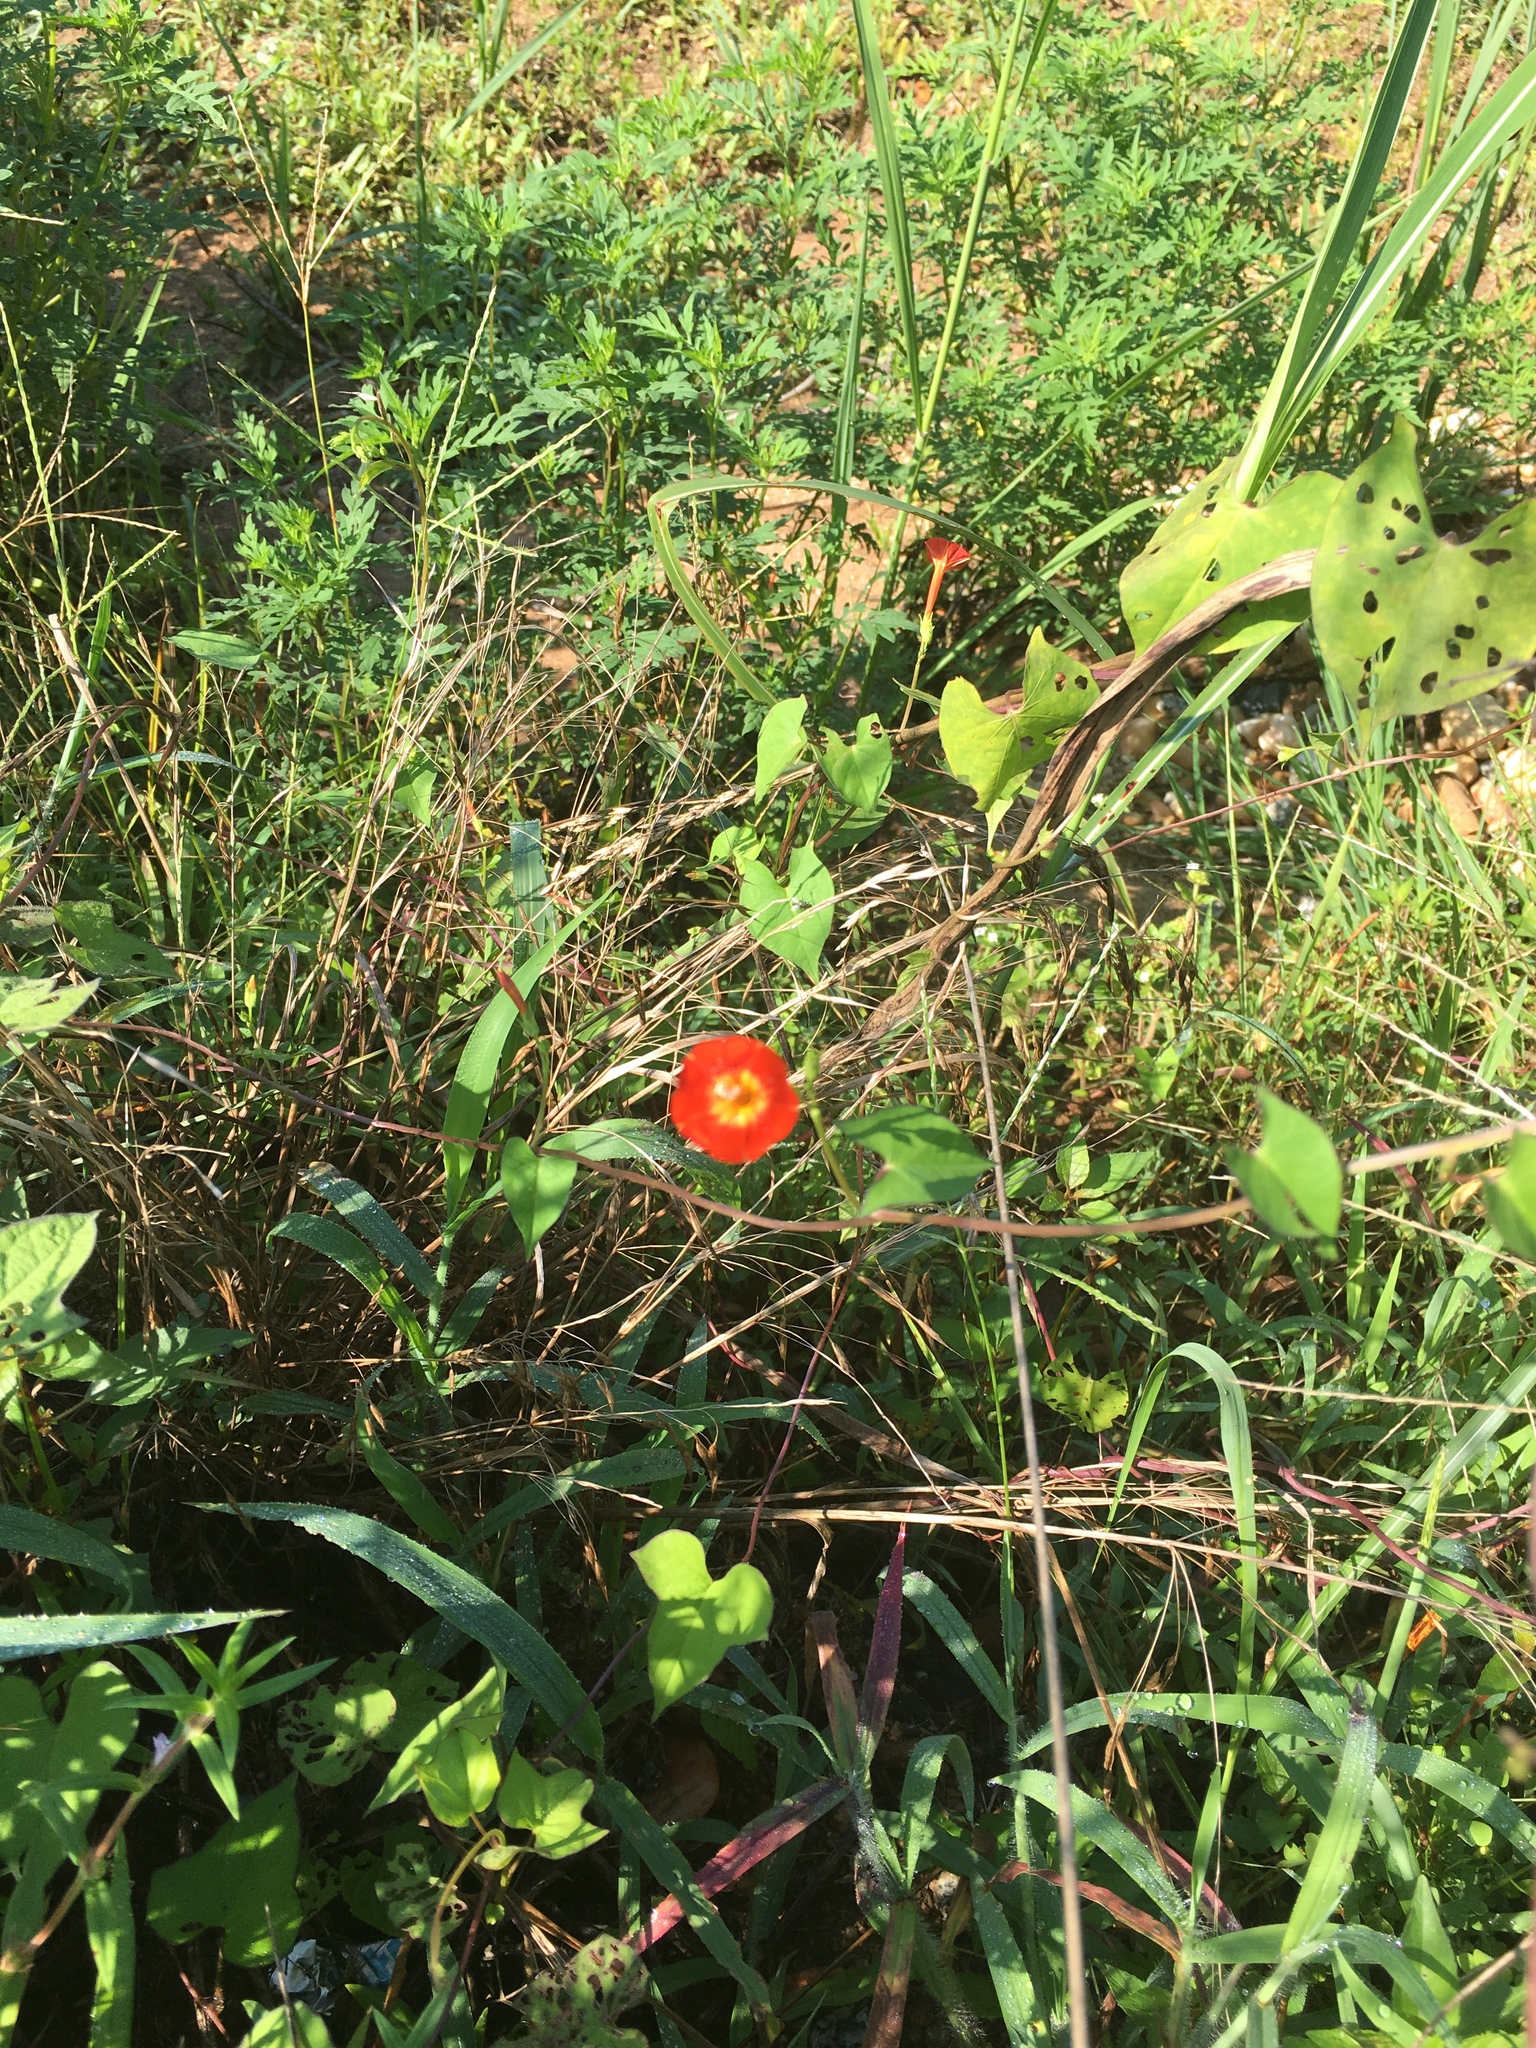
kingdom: Plantae
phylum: Tracheophyta
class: Magnoliopsida
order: Solanales
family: Convolvulaceae
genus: Ipomoea
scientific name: Ipomoea coccinea
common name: Red morning-glory
